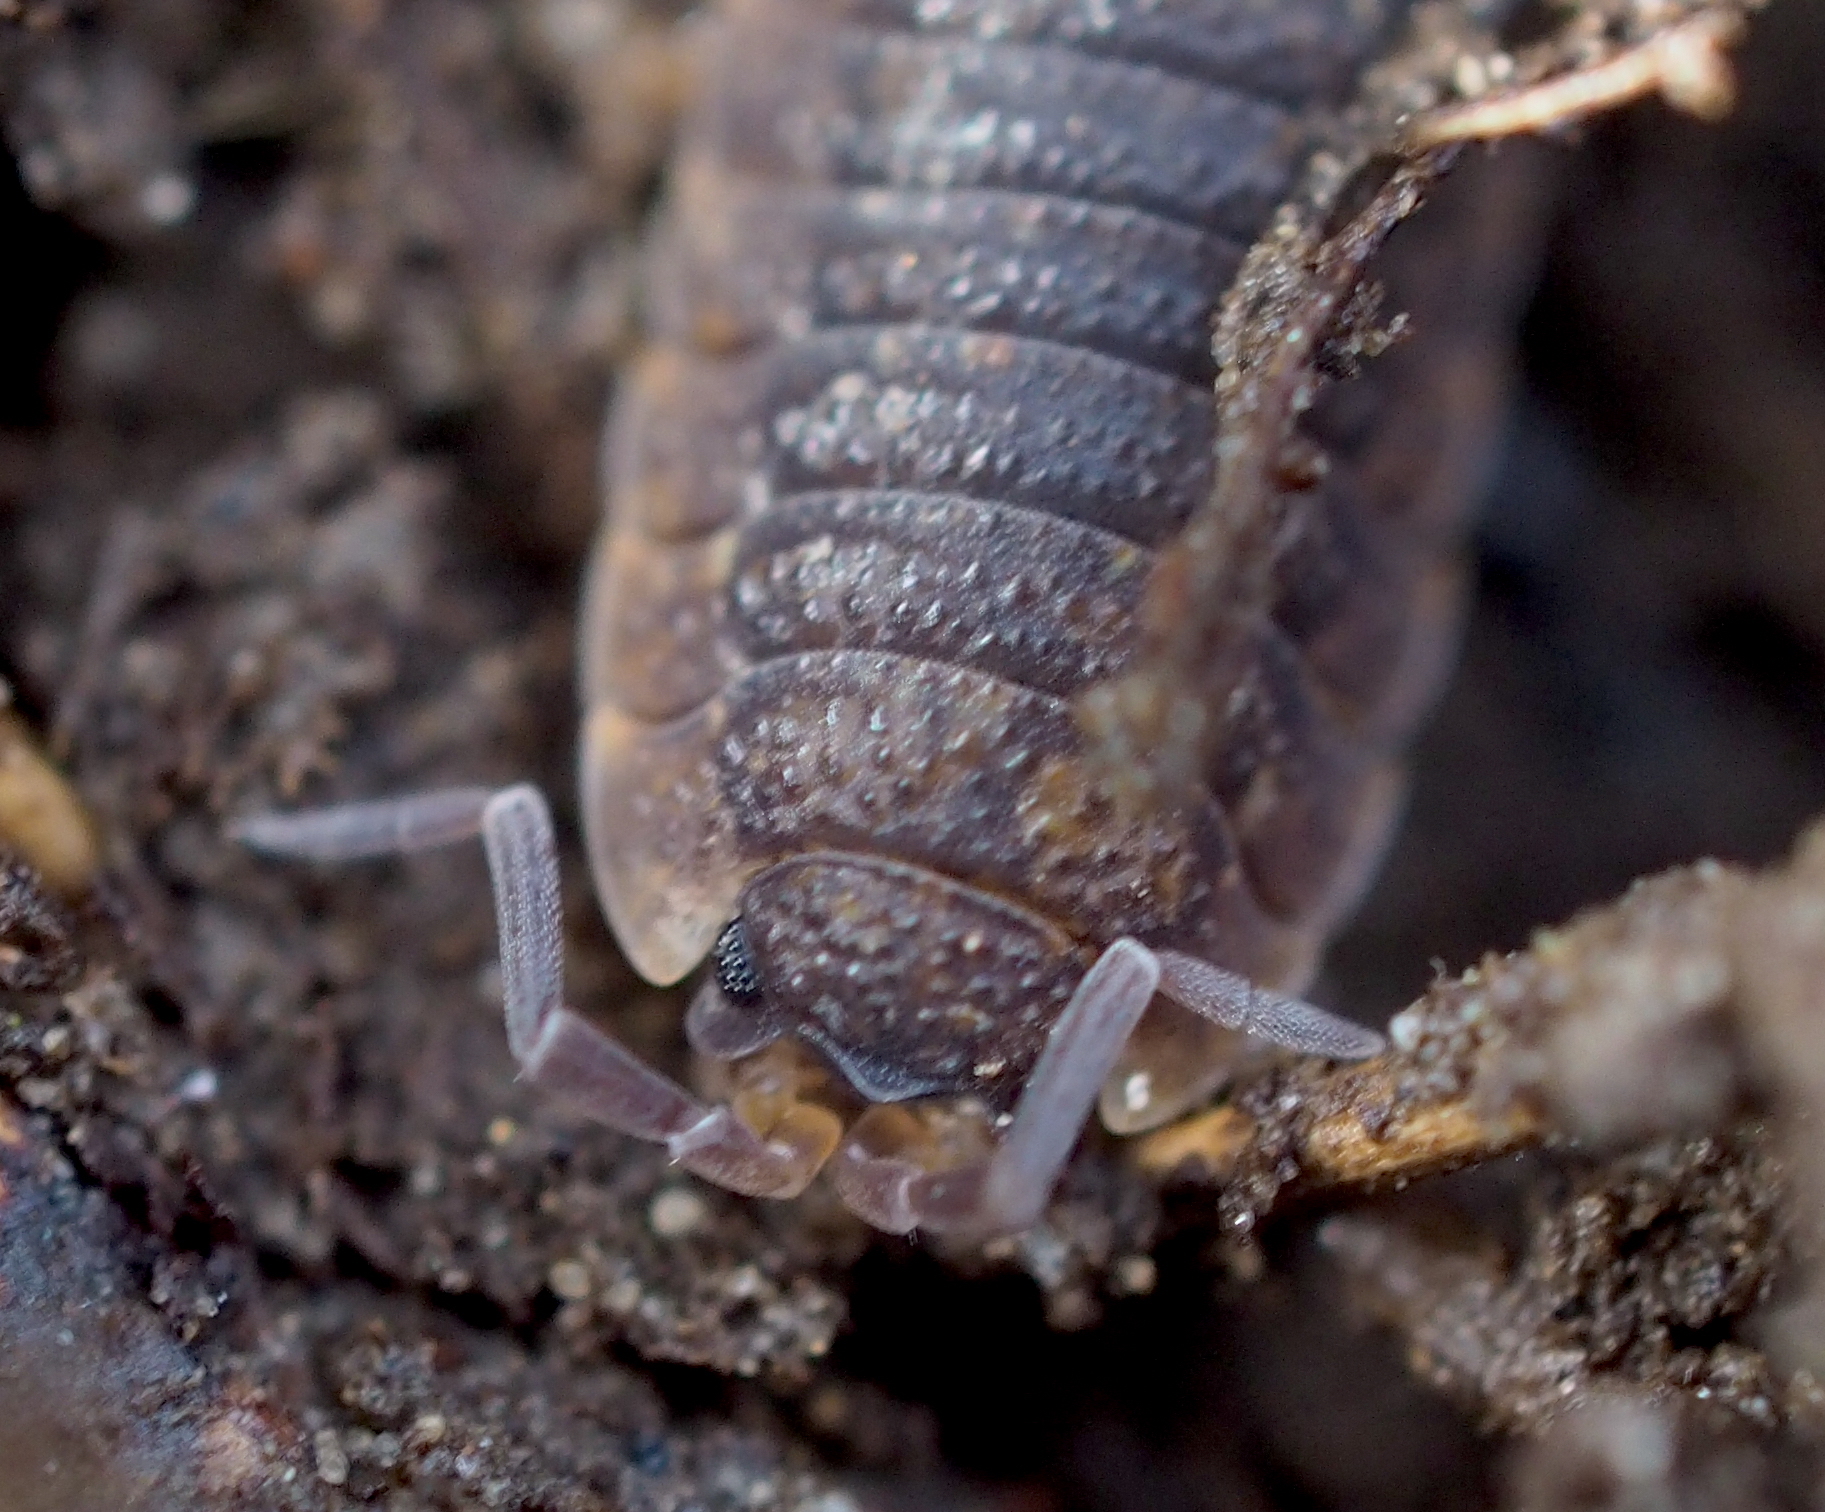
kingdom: Animalia
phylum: Arthropoda
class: Malacostraca
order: Isopoda
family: Porcellionidae
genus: Porcellio
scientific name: Porcellio scaber
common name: Common rough woodlouse
